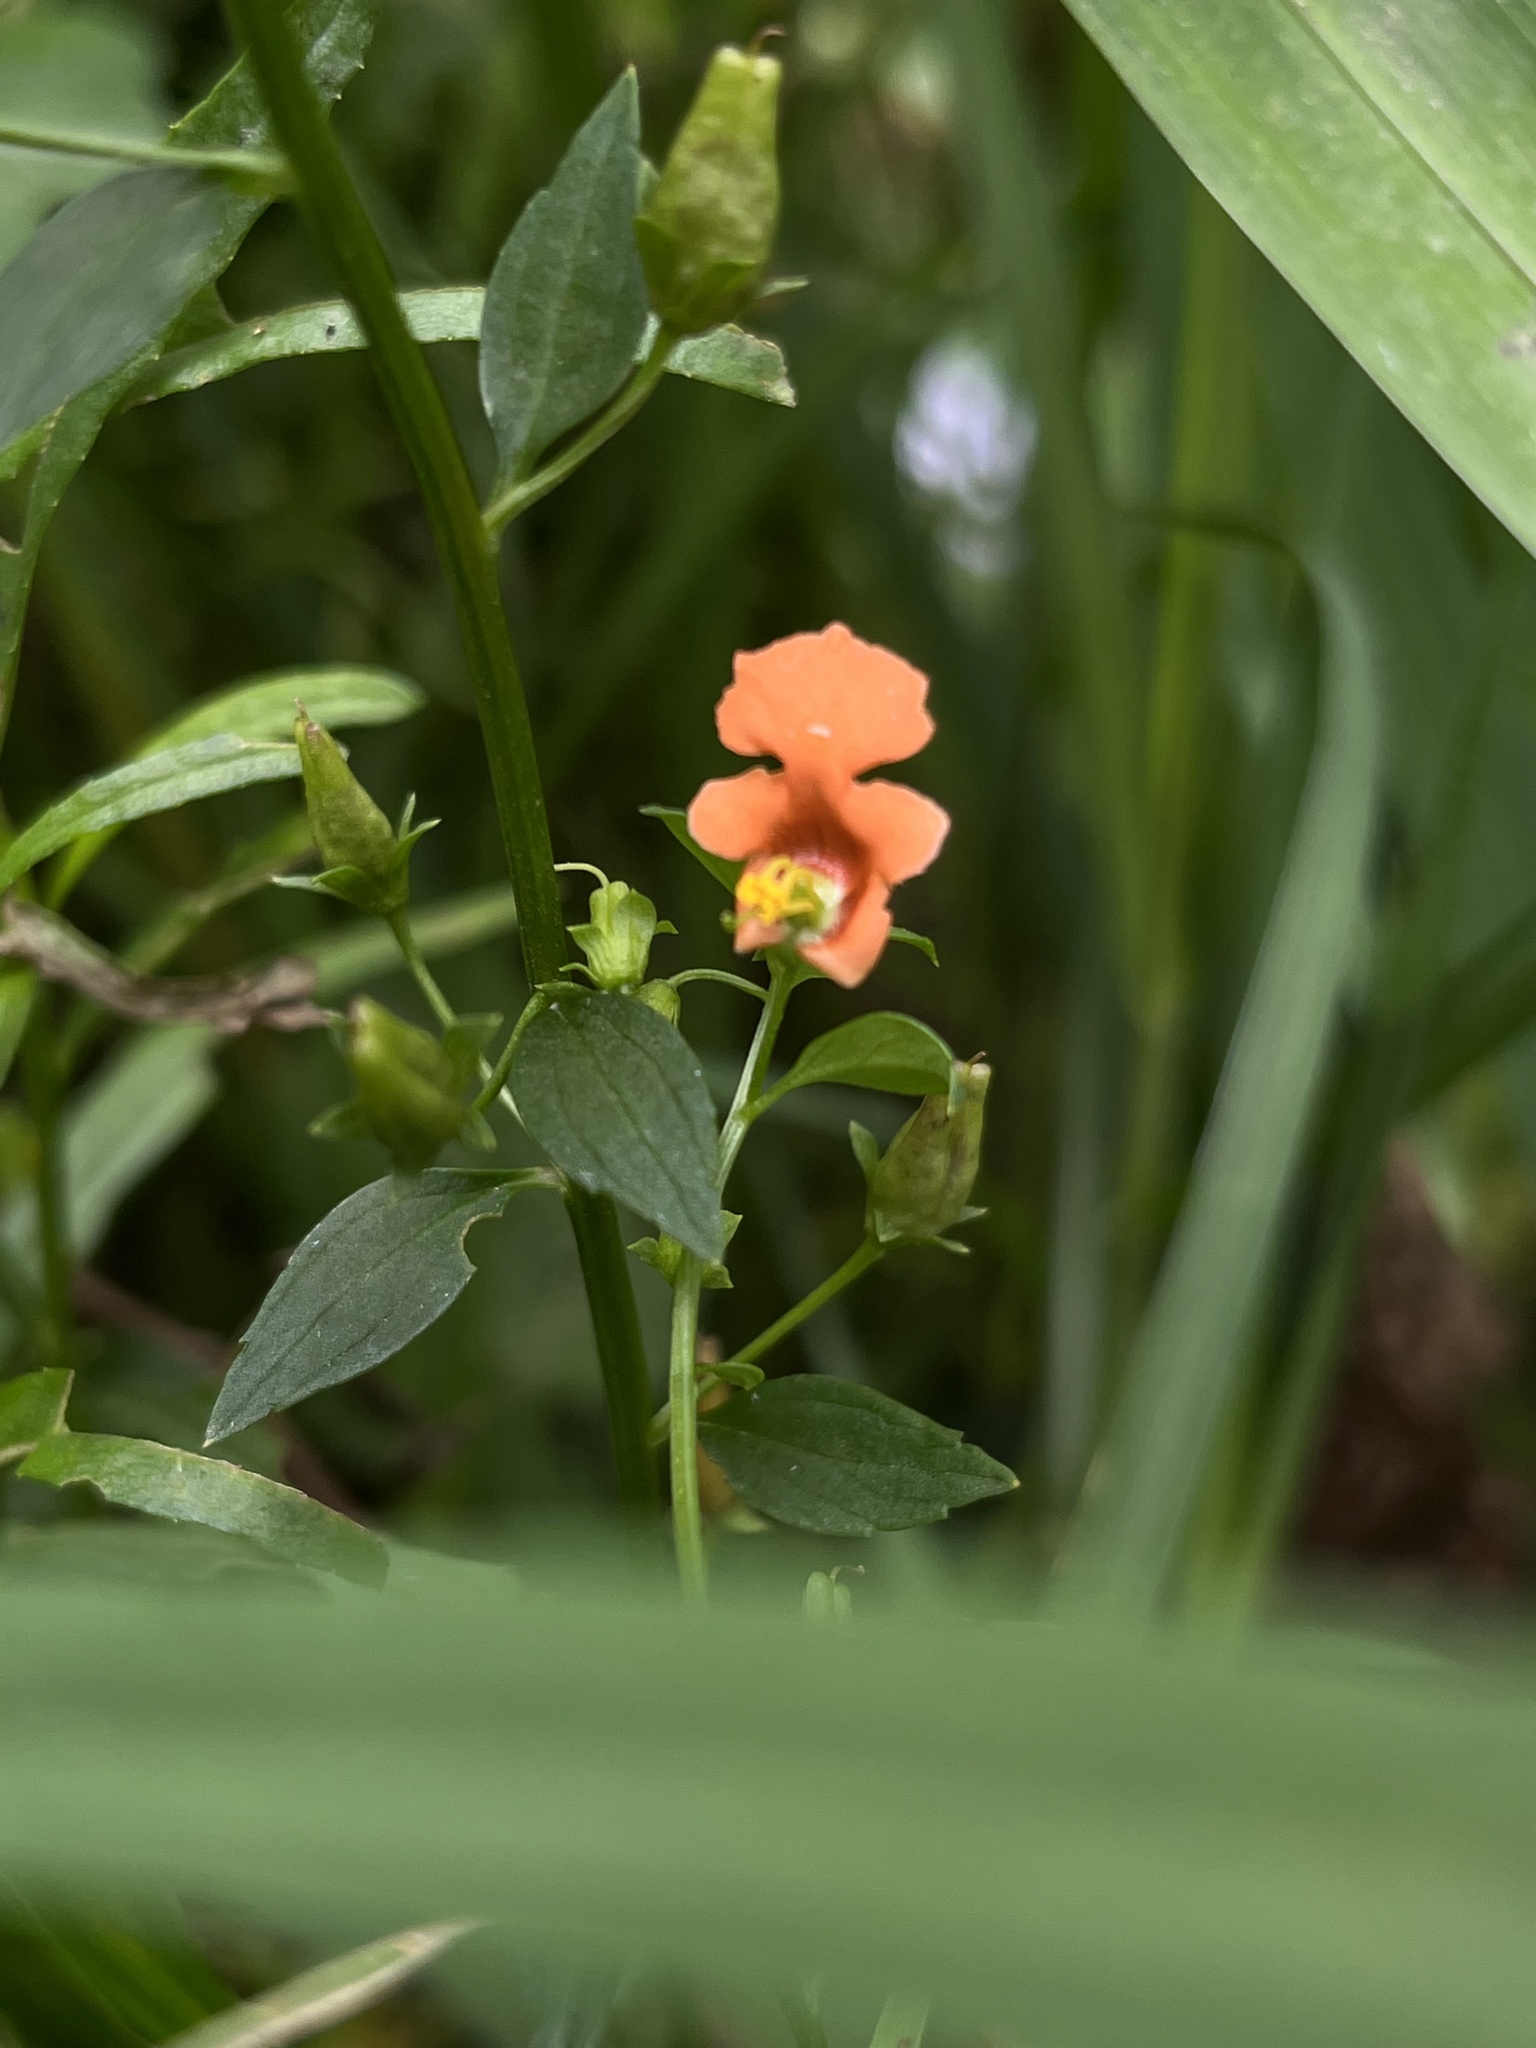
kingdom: Plantae
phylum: Tracheophyta
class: Magnoliopsida
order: Lamiales
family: Scrophulariaceae
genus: Alonsoa
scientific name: Alonsoa meridionalis
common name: Maskflower
